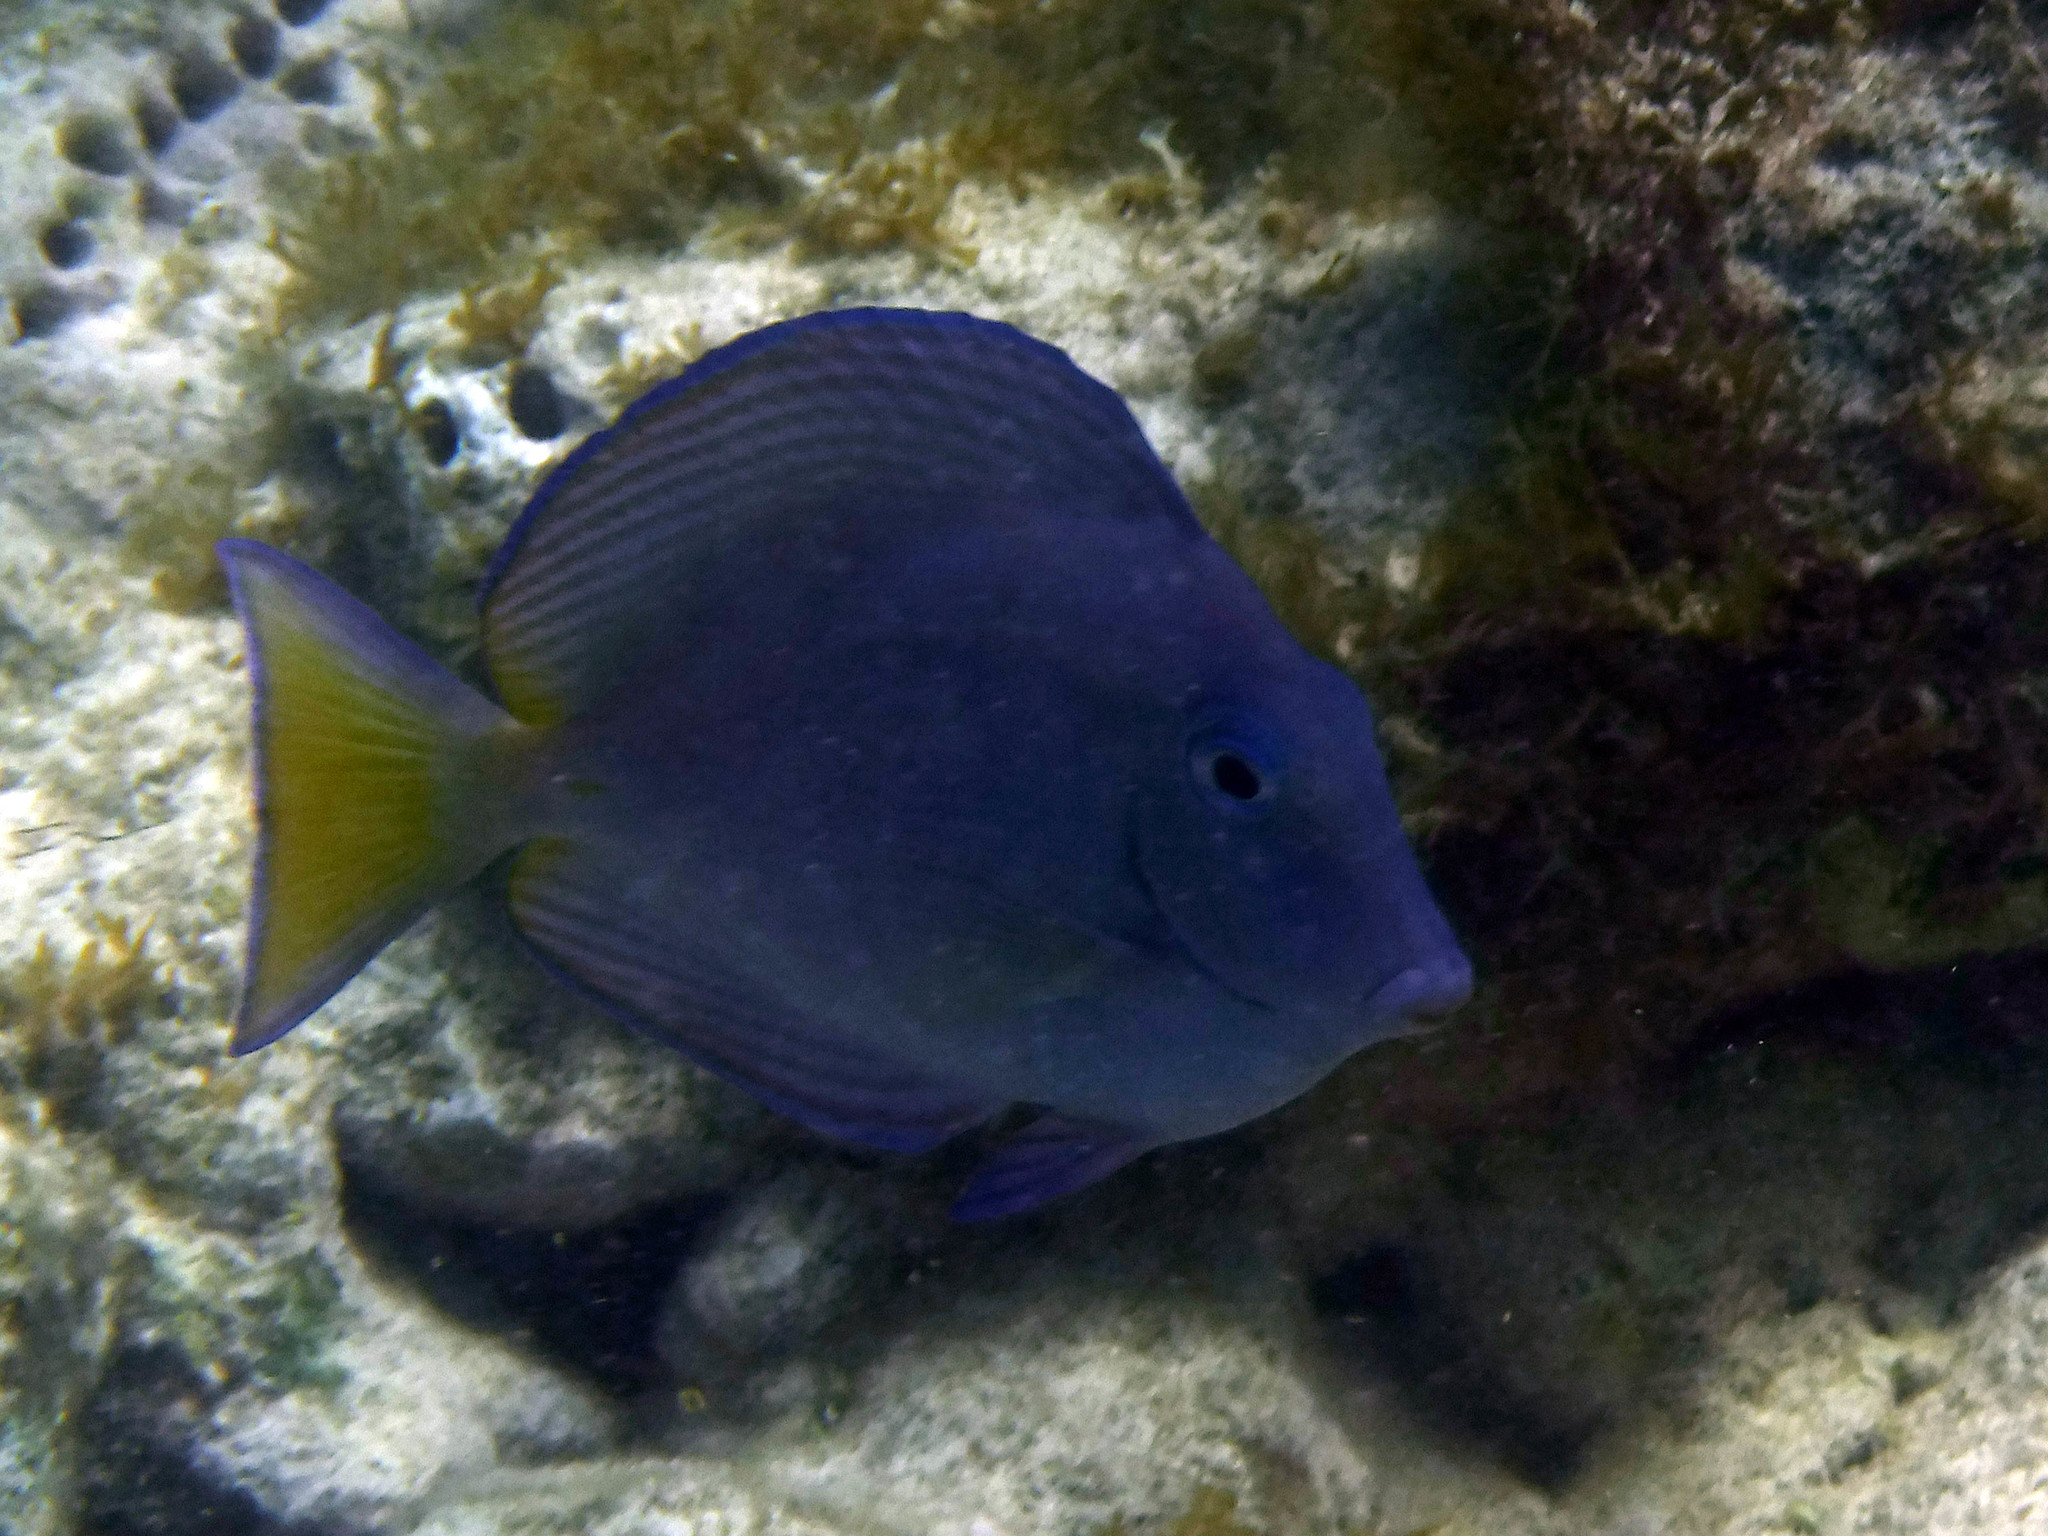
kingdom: Animalia
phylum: Chordata
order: Perciformes
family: Acanthuridae
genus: Acanthurus
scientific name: Acanthurus coeruleus
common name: Blue tang
